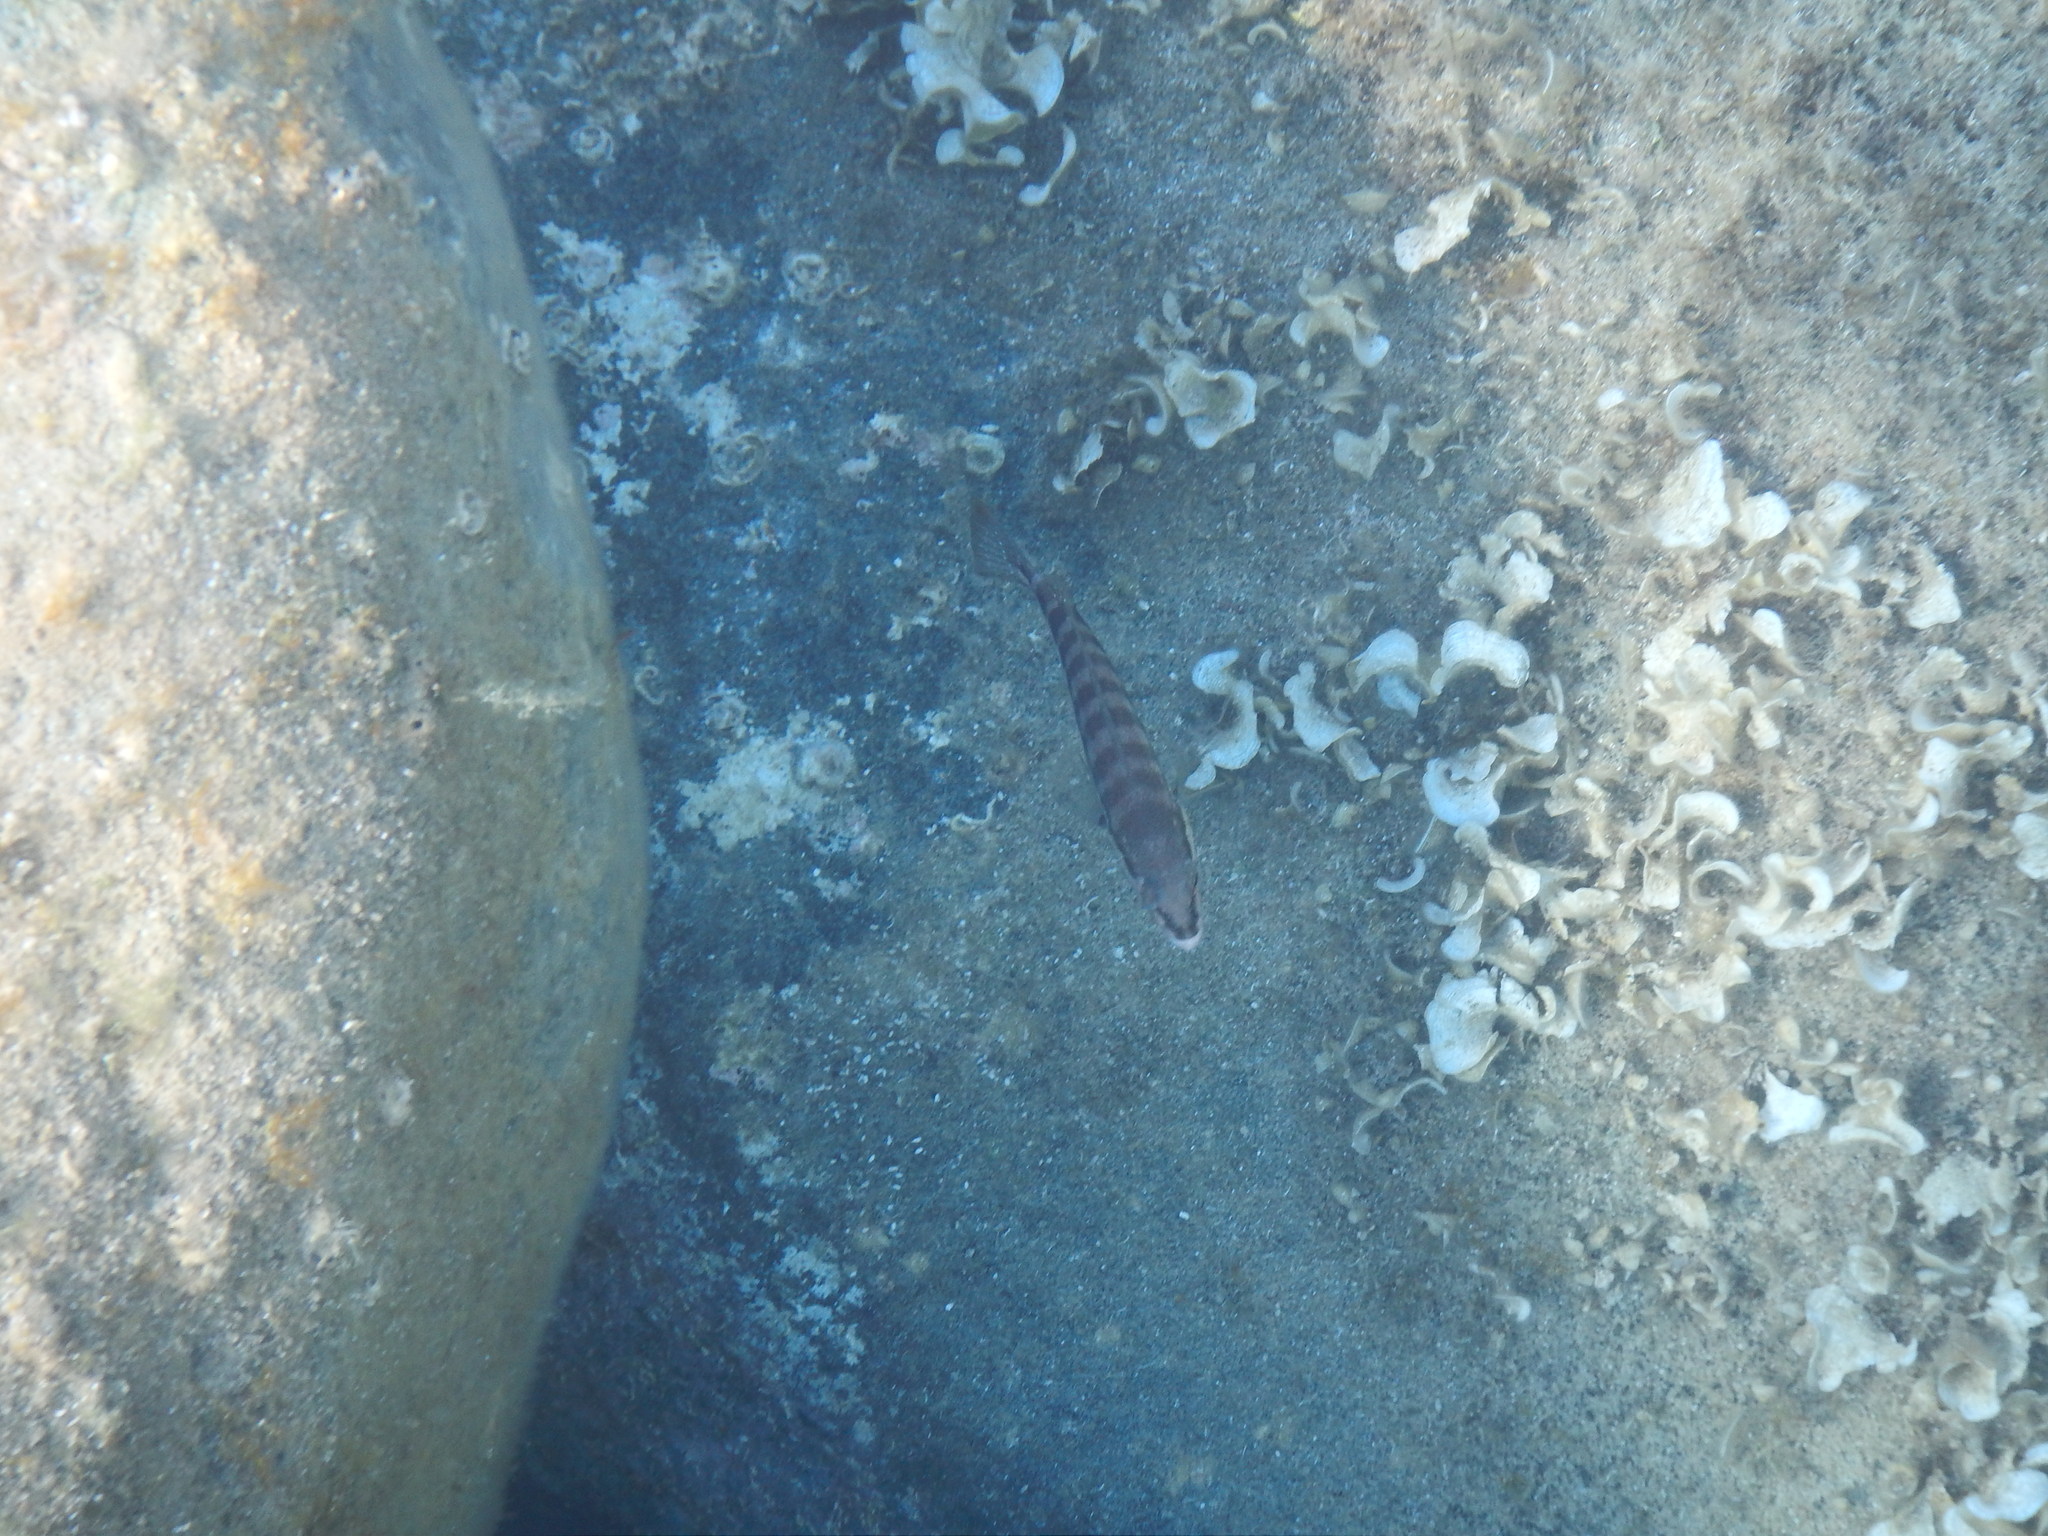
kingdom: Animalia
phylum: Chordata
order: Perciformes
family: Serranidae
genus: Serranus
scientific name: Serranus cabrilla
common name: Comber
